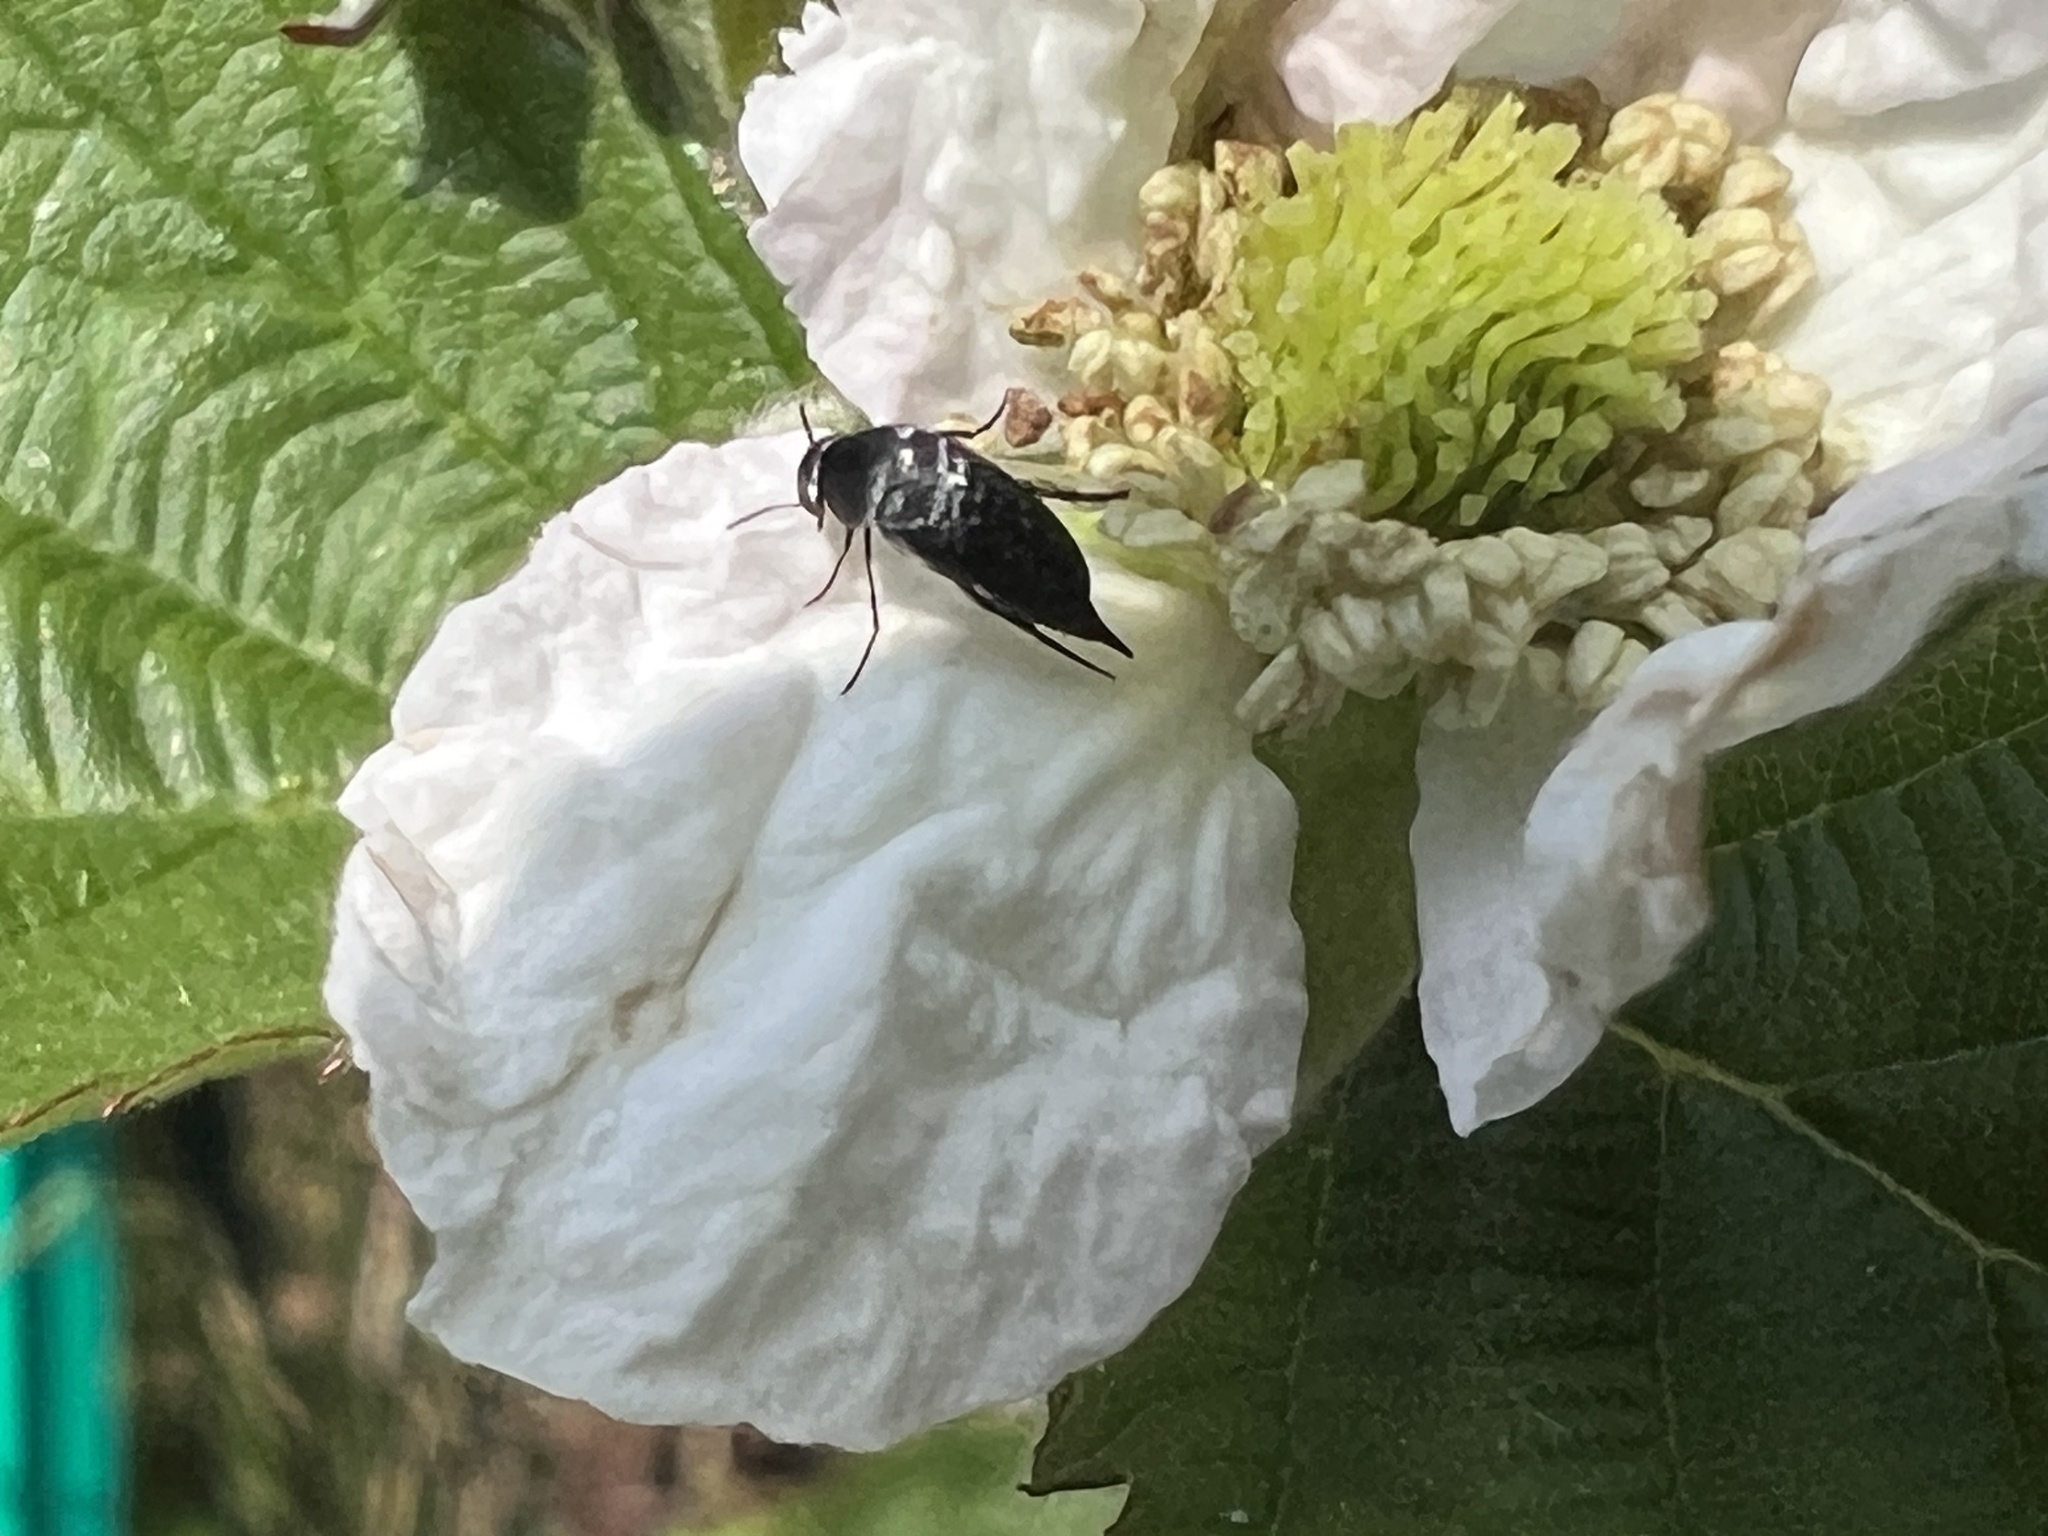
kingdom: Animalia
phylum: Arthropoda
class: Insecta
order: Coleoptera
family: Mordellidae
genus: Mordella
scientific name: Mordella marginata
